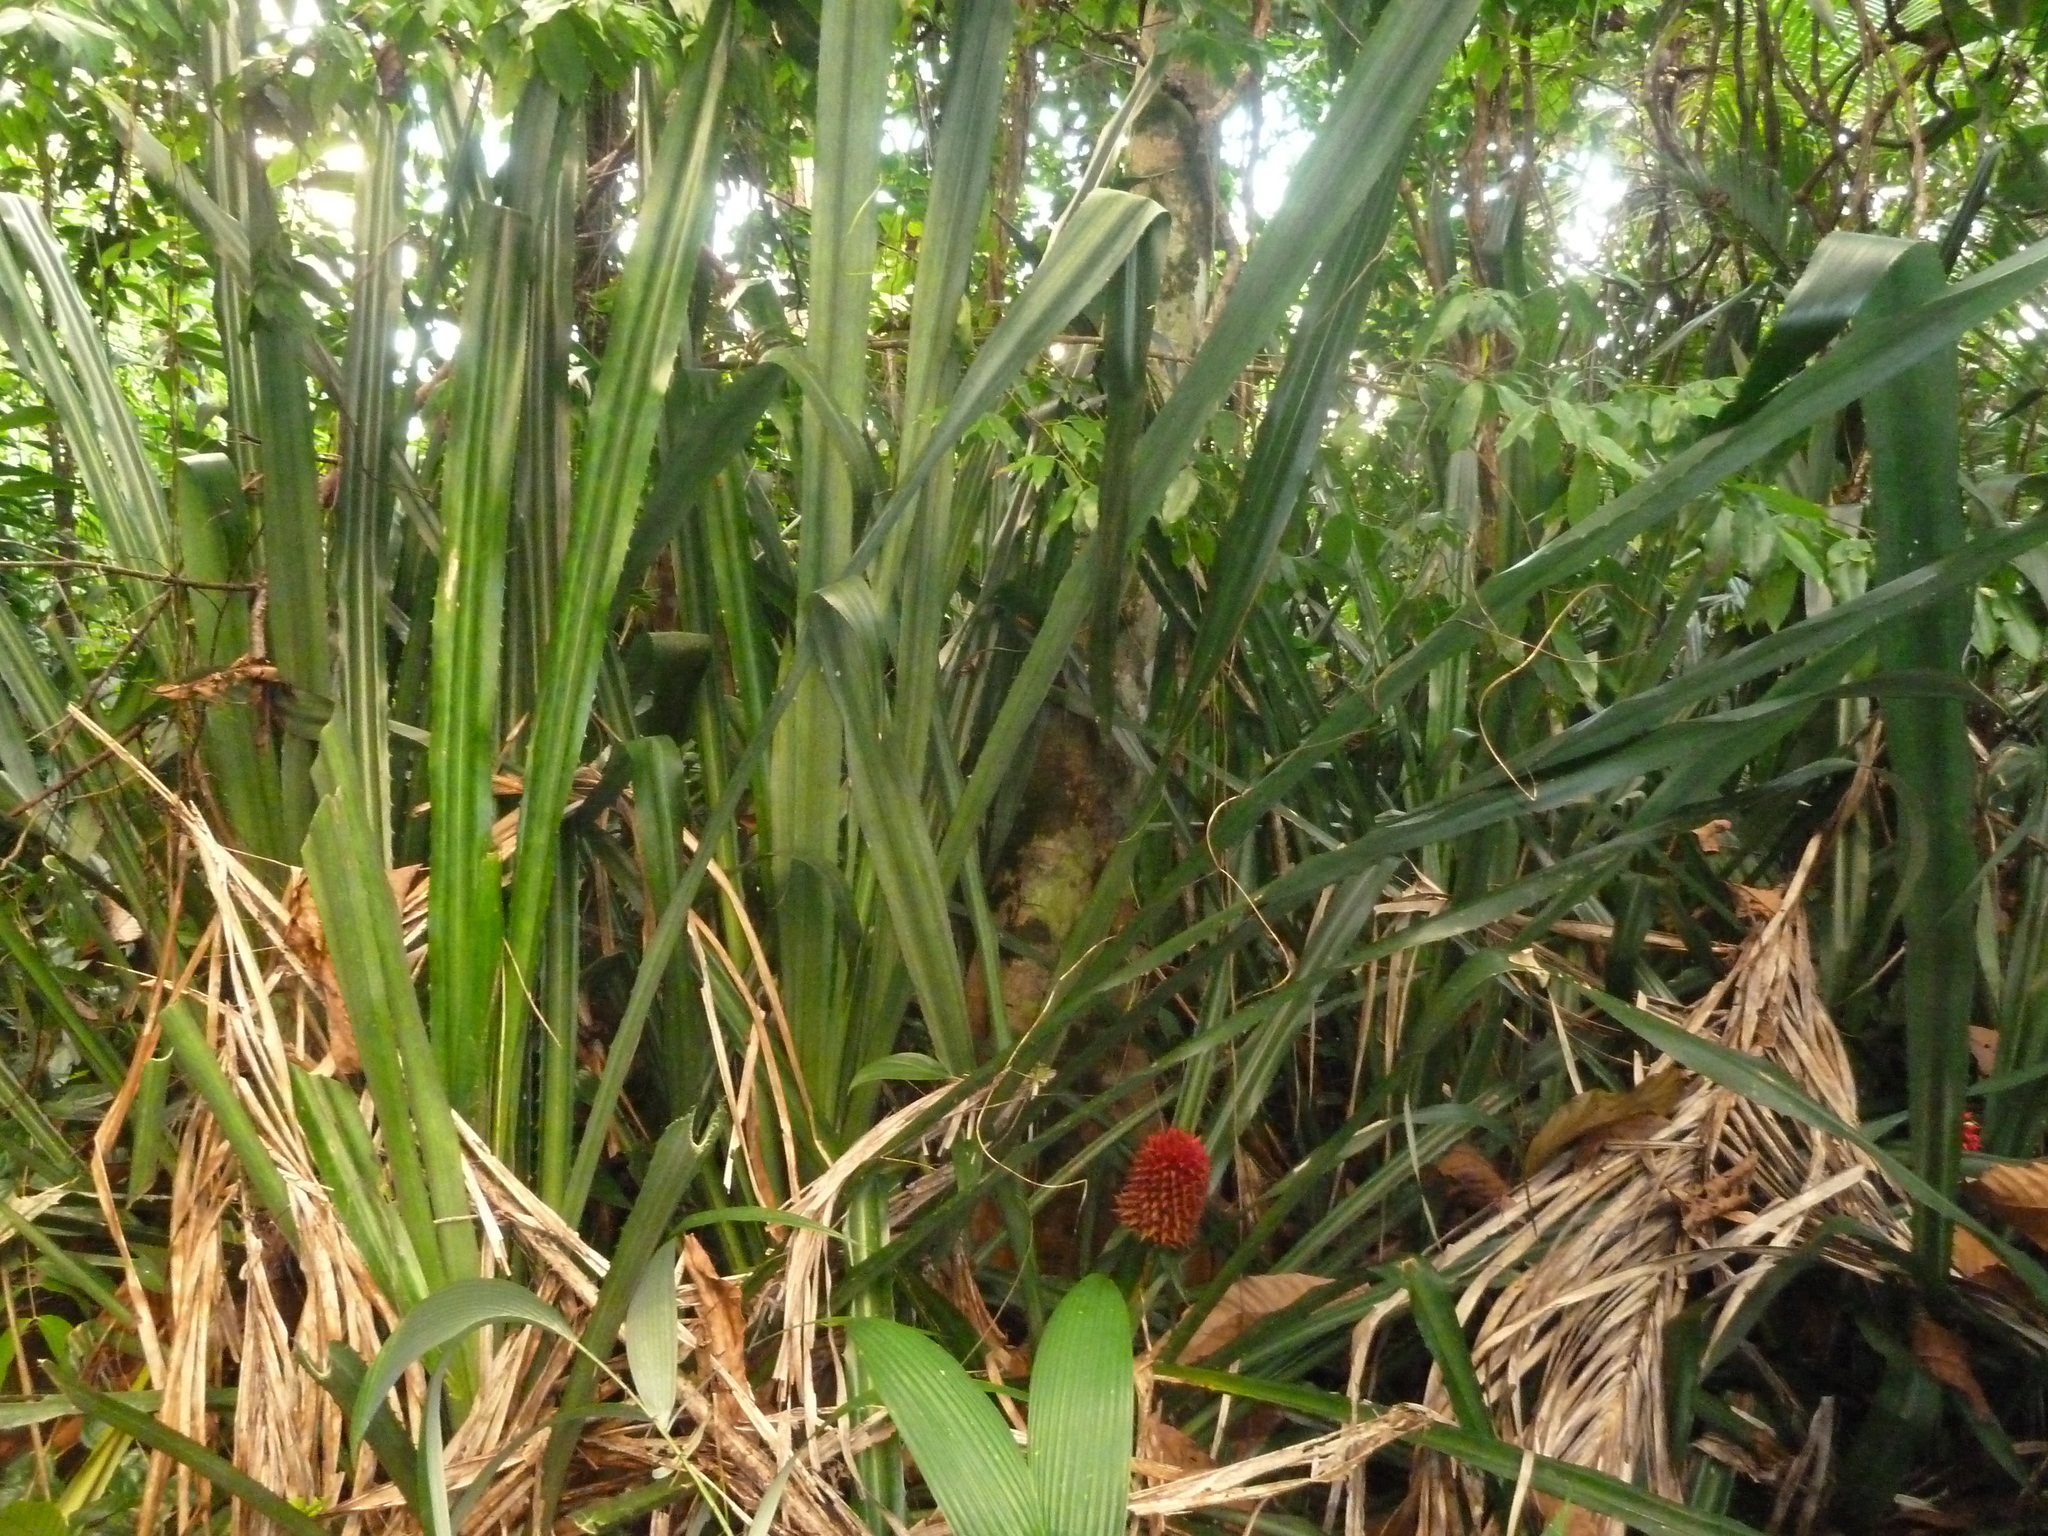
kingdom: Plantae
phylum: Tracheophyta
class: Liliopsida
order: Poales
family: Bromeliaceae
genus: Aechmea
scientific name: Aechmea magdalenae
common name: Arghan
